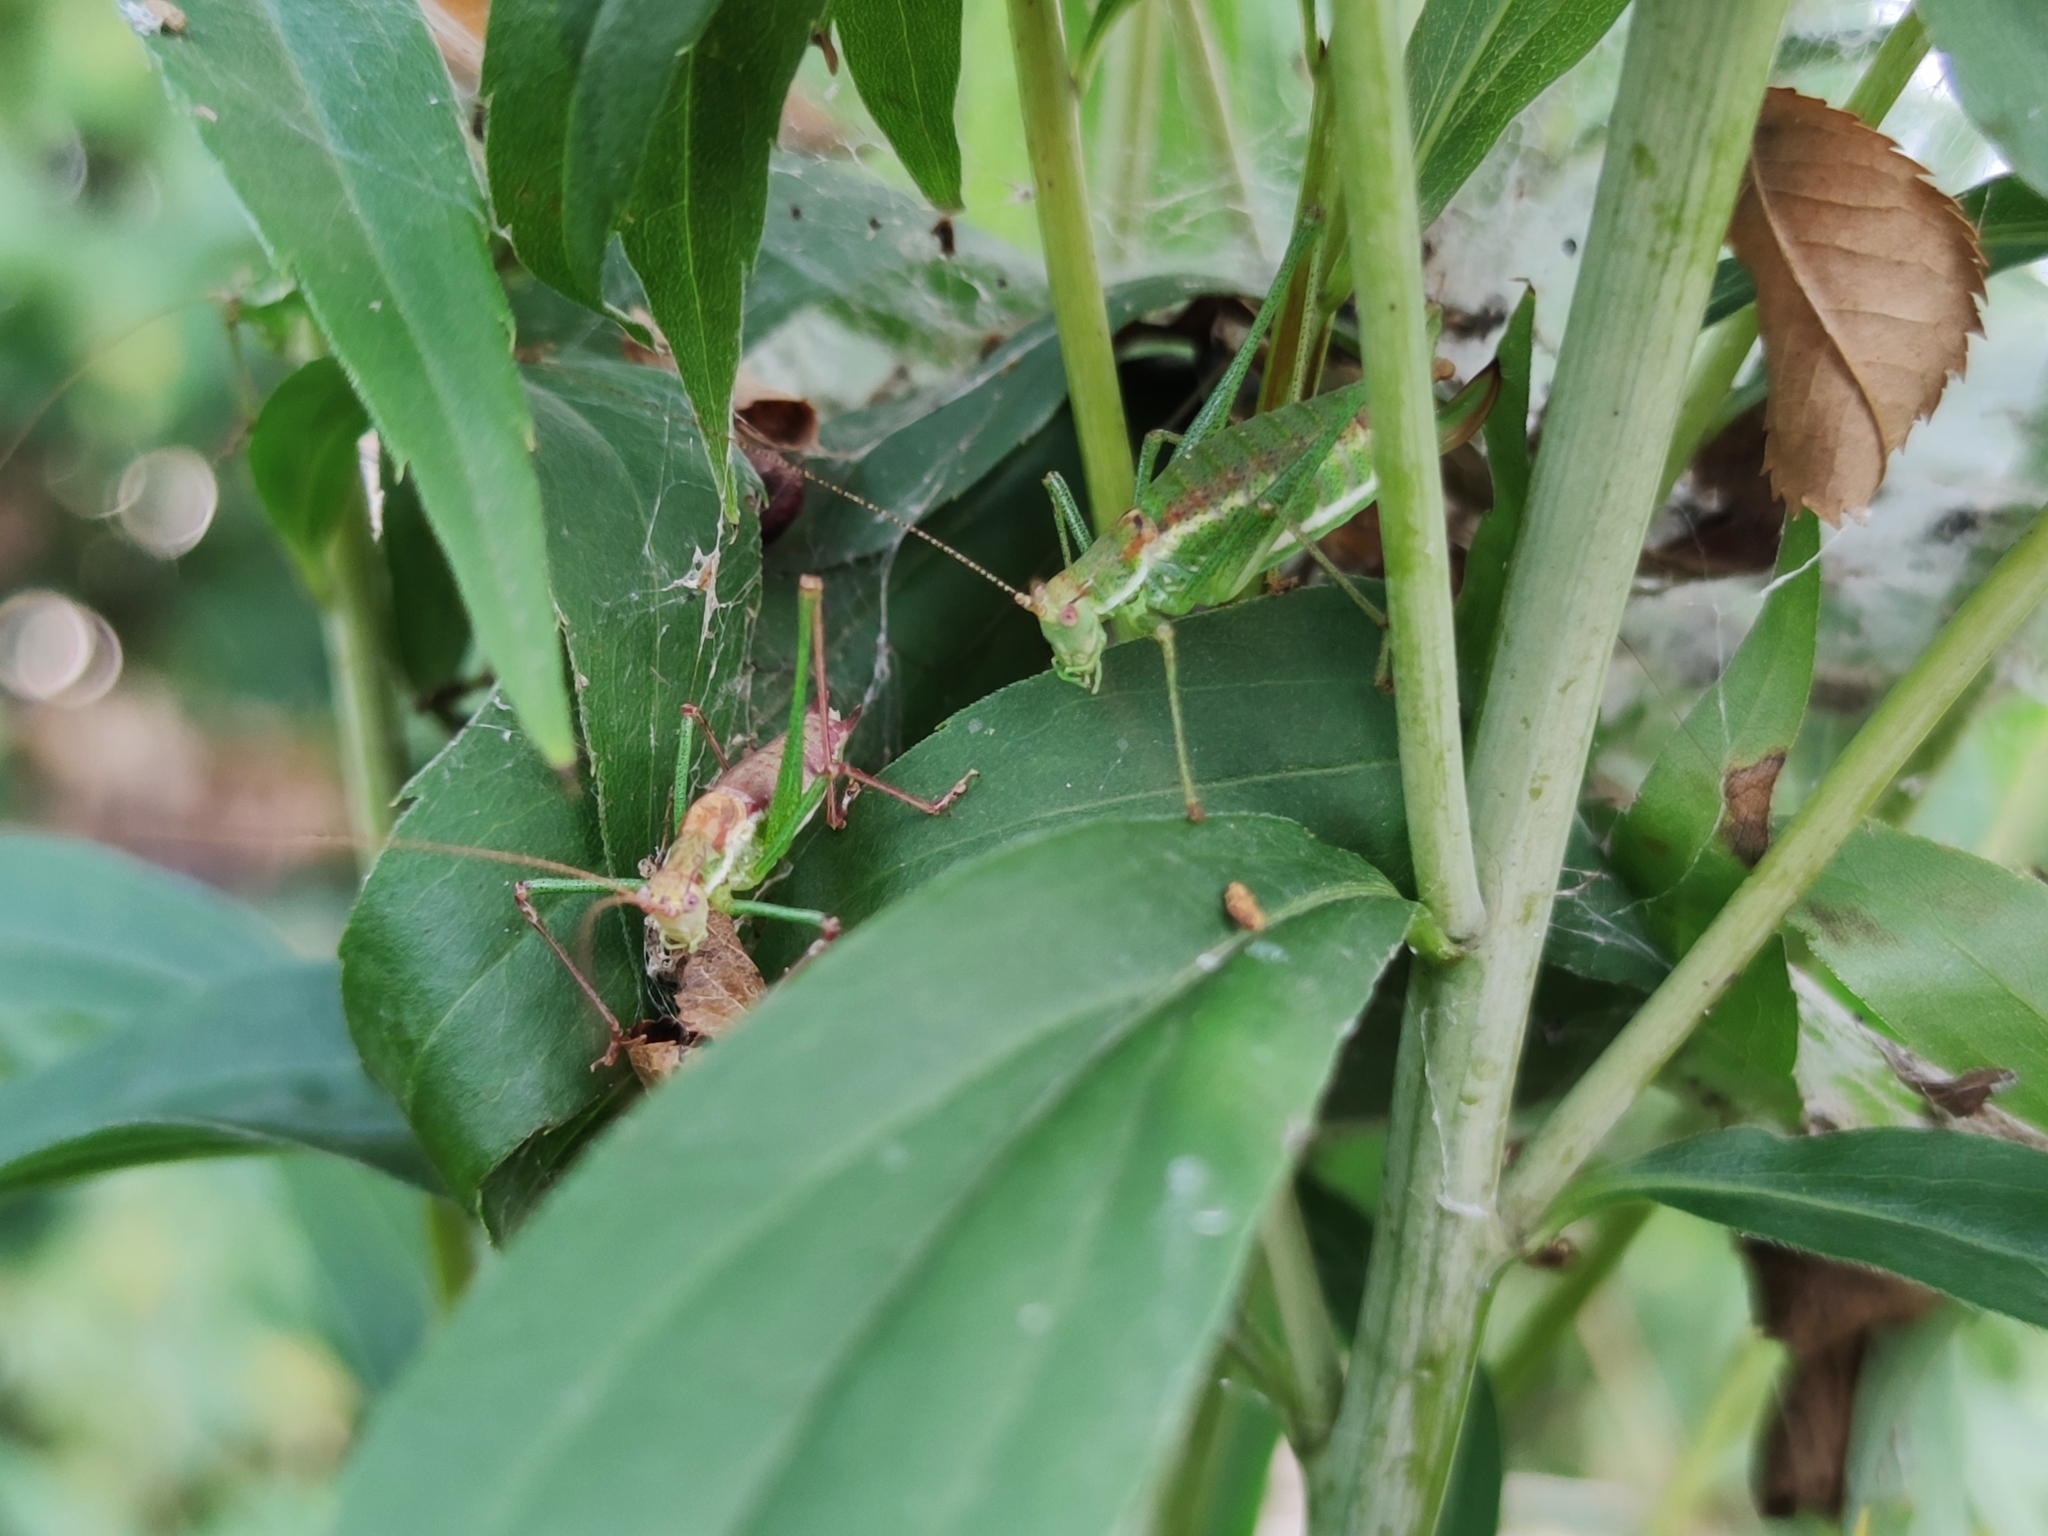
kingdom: Animalia
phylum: Arthropoda
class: Insecta
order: Orthoptera
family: Tettigoniidae
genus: Leptophyes
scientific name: Leptophyes albovittata
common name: Striped bush-cricket
